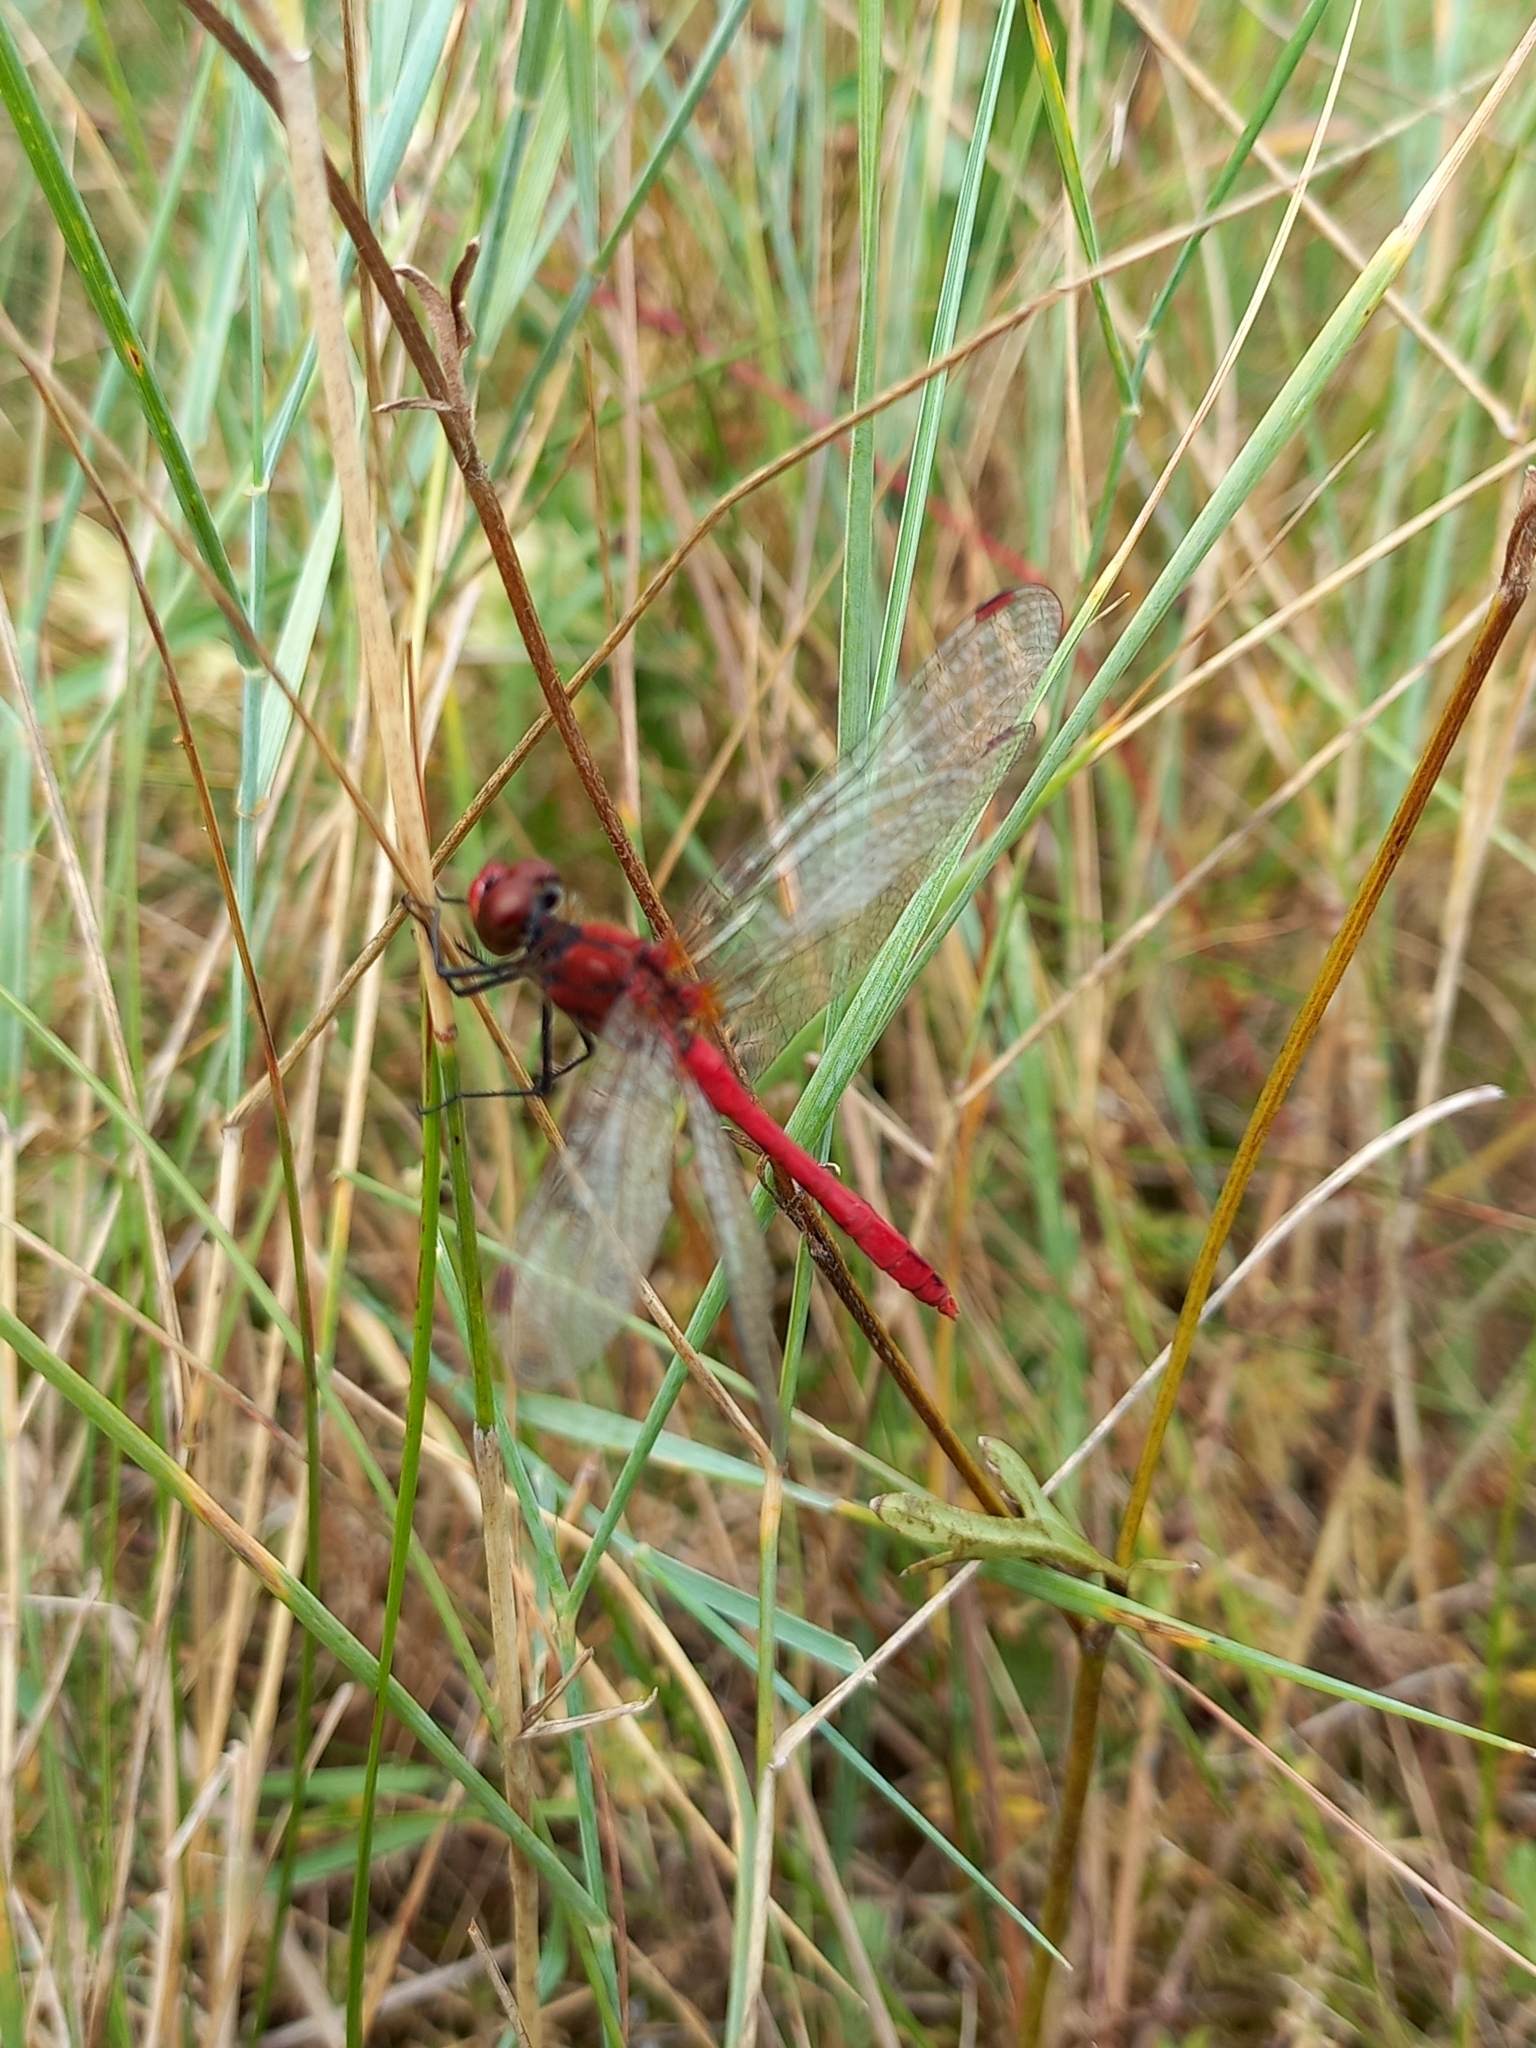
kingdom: Animalia
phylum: Arthropoda
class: Insecta
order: Odonata
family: Libellulidae
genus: Sympetrum
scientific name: Sympetrum sanguineum
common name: Ruddy darter
